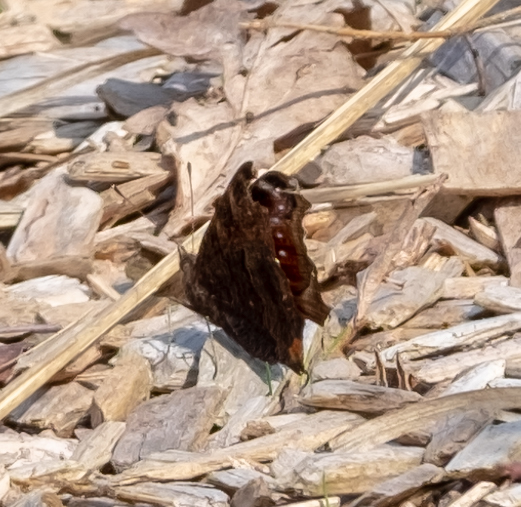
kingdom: Animalia
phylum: Arthropoda
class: Insecta
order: Lepidoptera
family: Nymphalidae
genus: Aglais
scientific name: Aglais io
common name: Peacock
